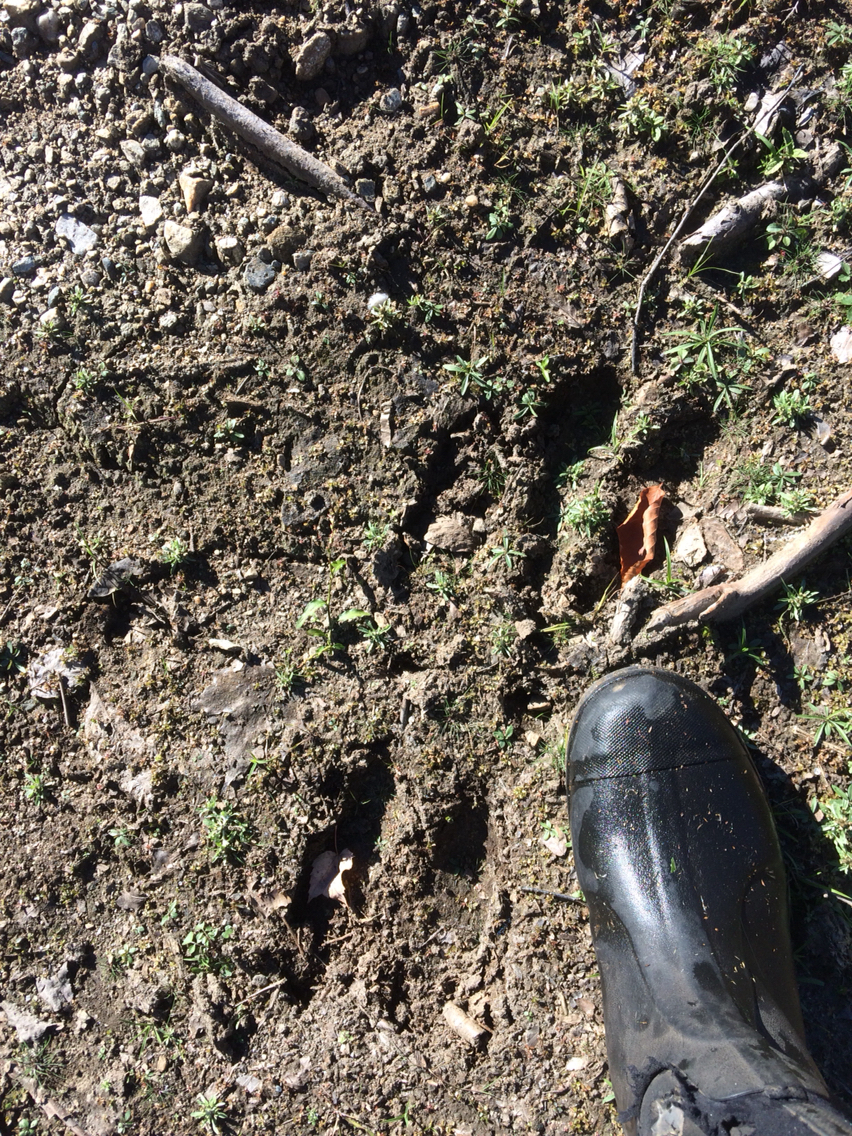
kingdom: Animalia
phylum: Chordata
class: Mammalia
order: Artiodactyla
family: Cervidae
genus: Alces
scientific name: Alces alces
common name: Moose
